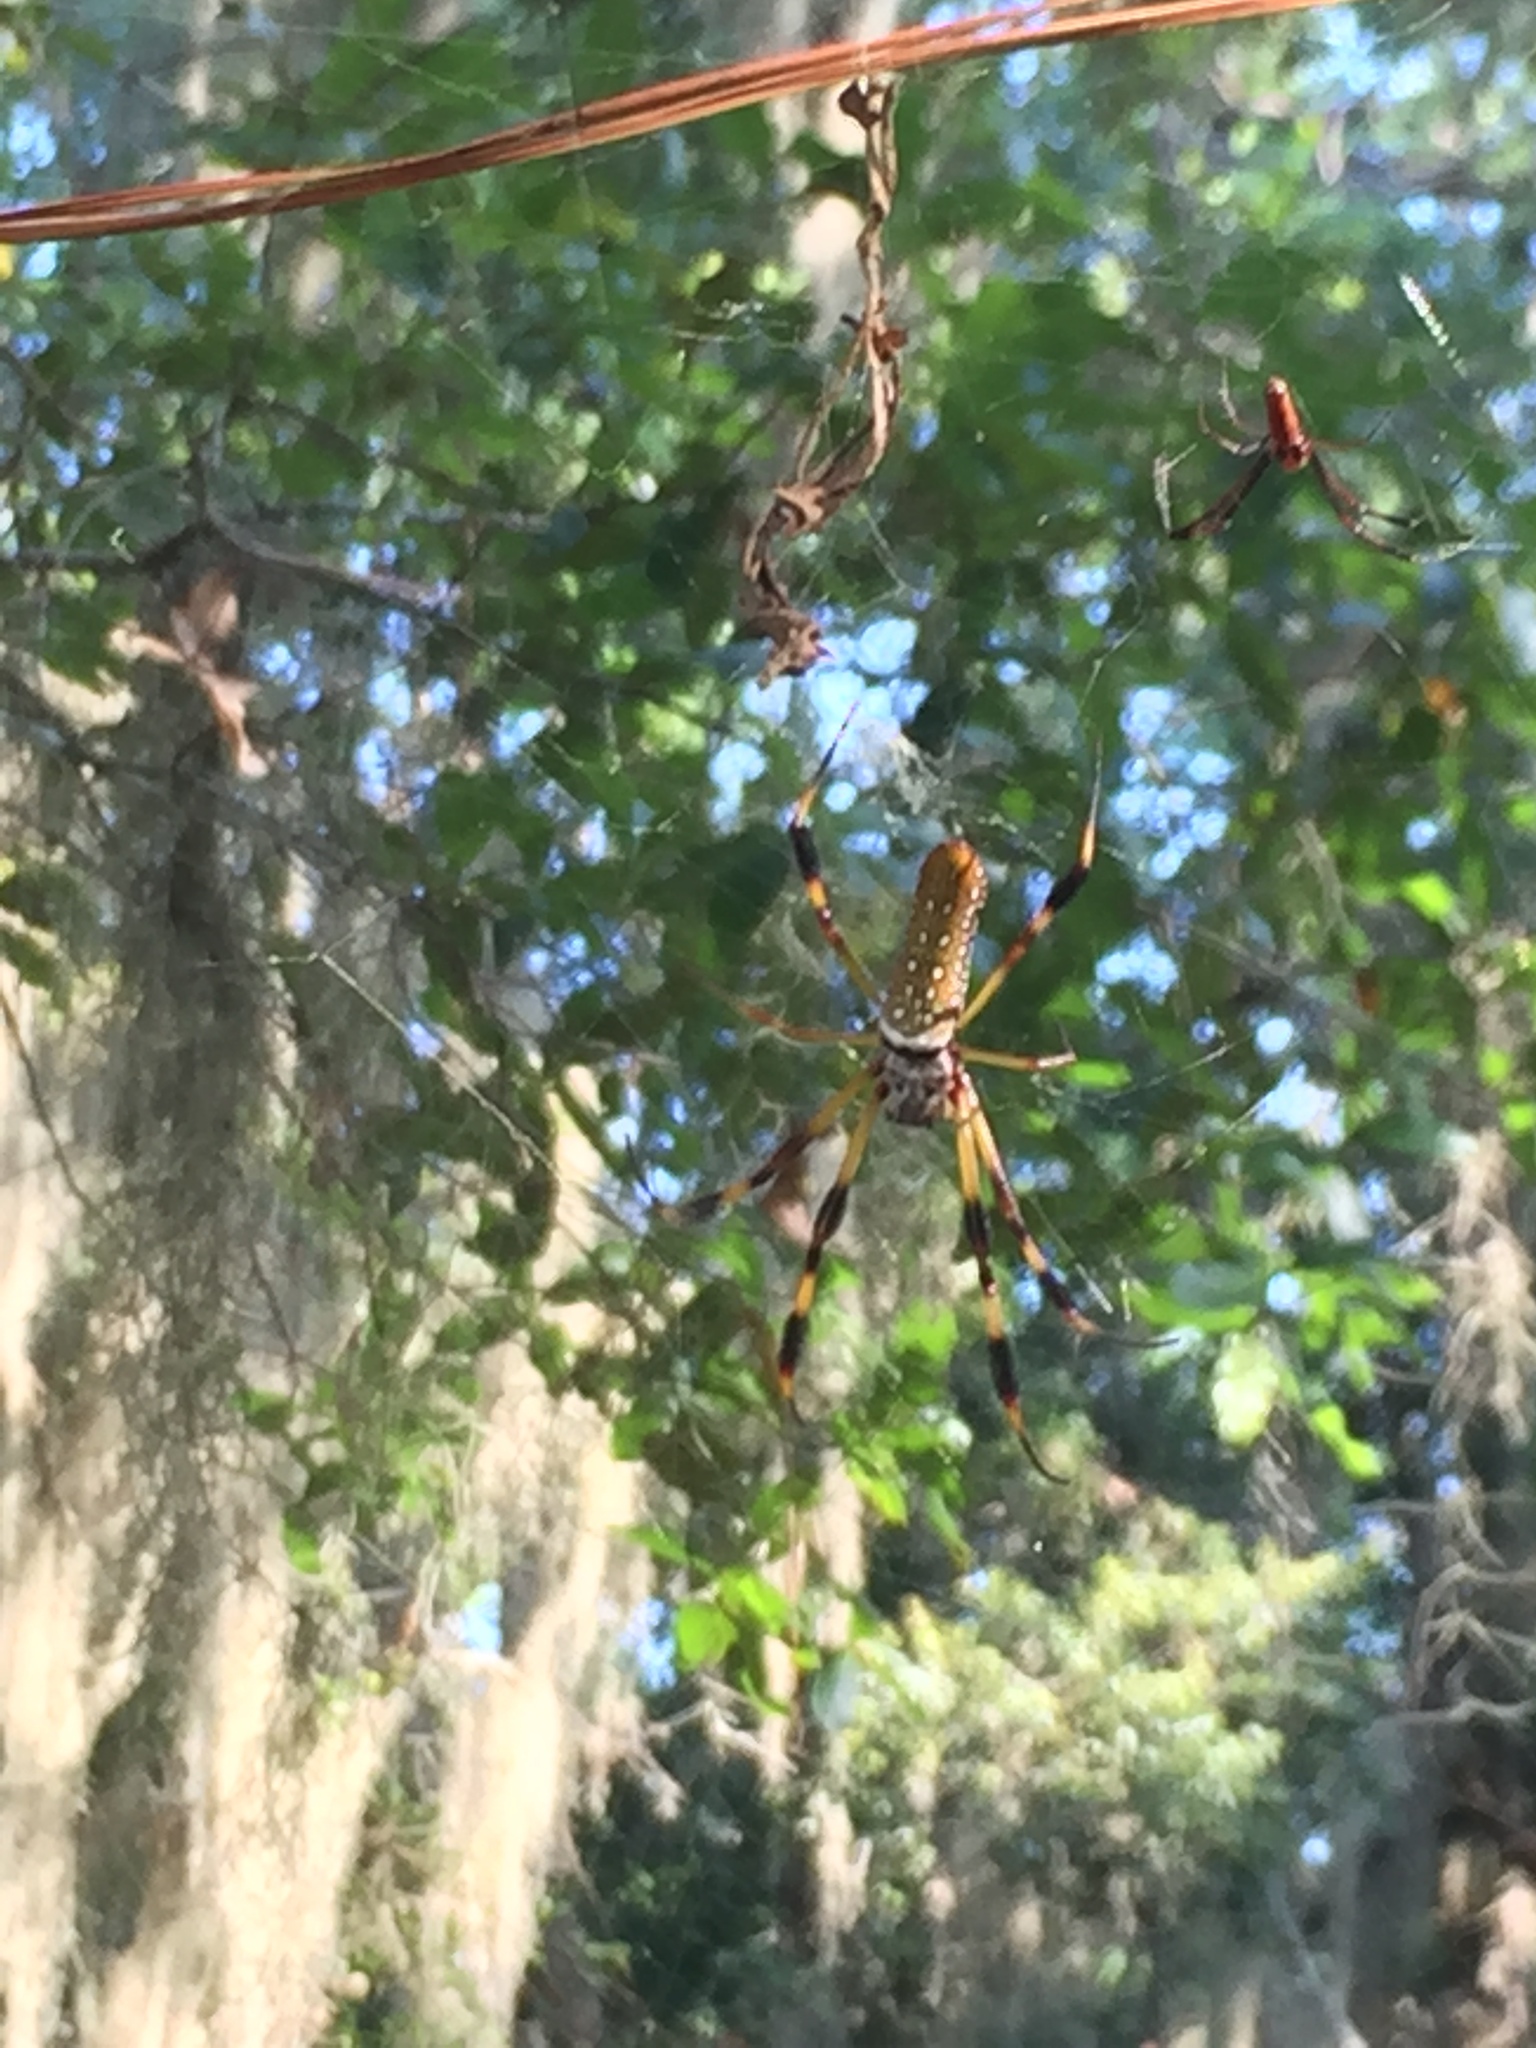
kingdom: Animalia
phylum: Arthropoda
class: Arachnida
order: Araneae
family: Araneidae
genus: Trichonephila
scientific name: Trichonephila clavipes
